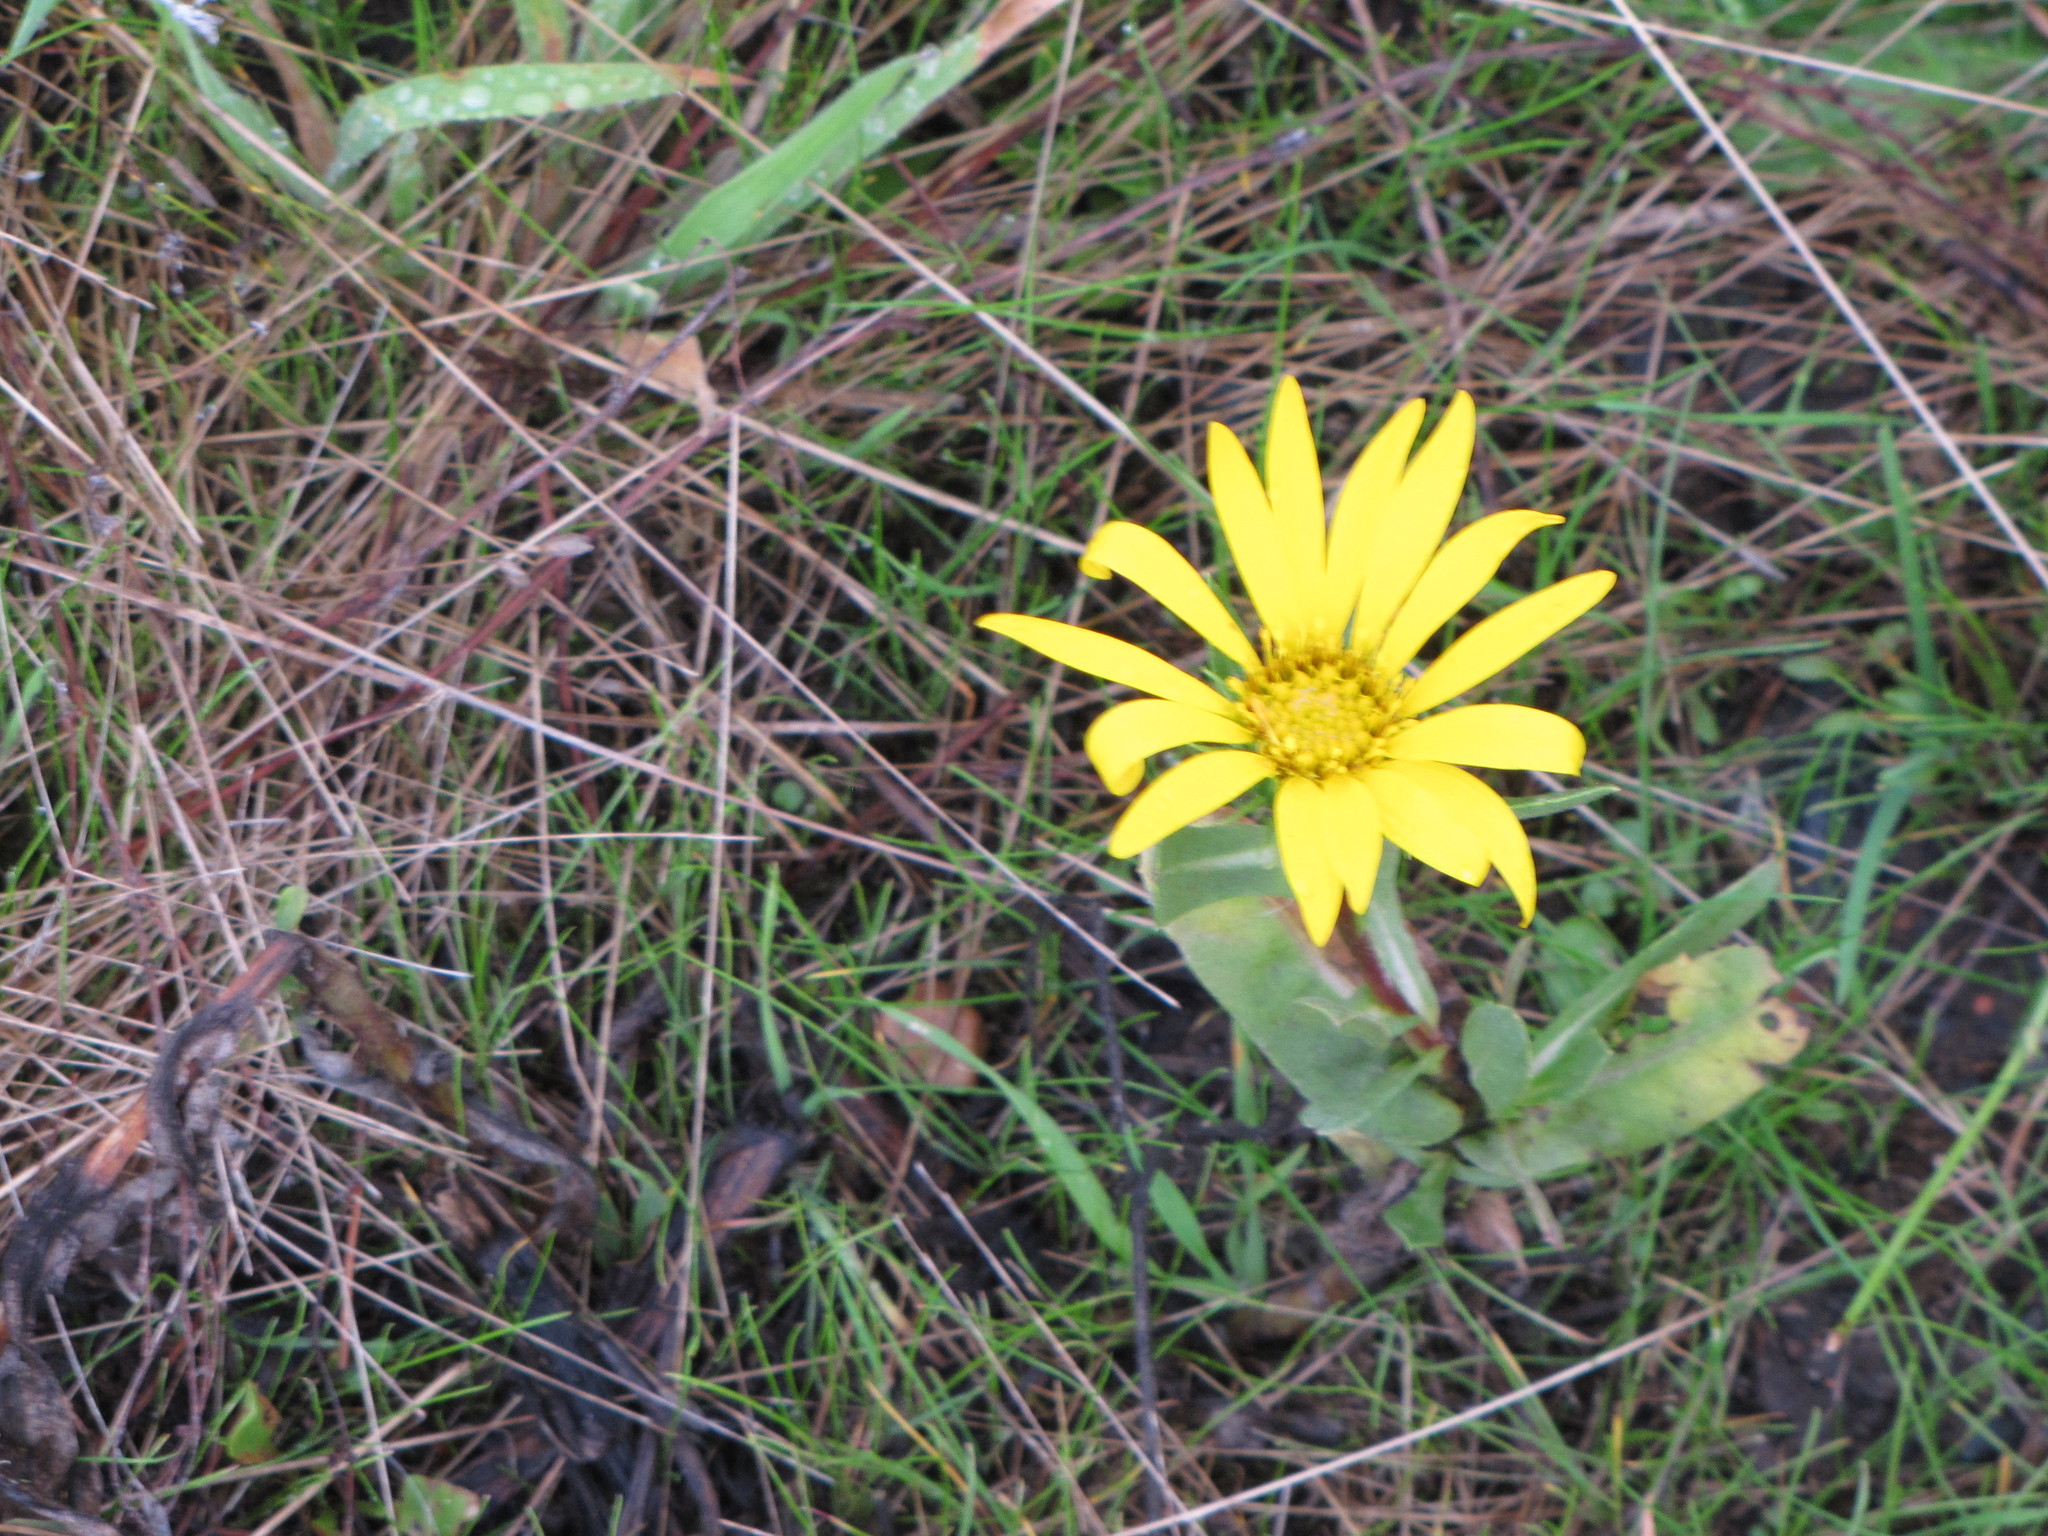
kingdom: Plantae
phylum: Tracheophyta
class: Magnoliopsida
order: Asterales
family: Asteraceae
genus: Grindelia
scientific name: Grindelia hirsutula
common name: Hairy gumweed
